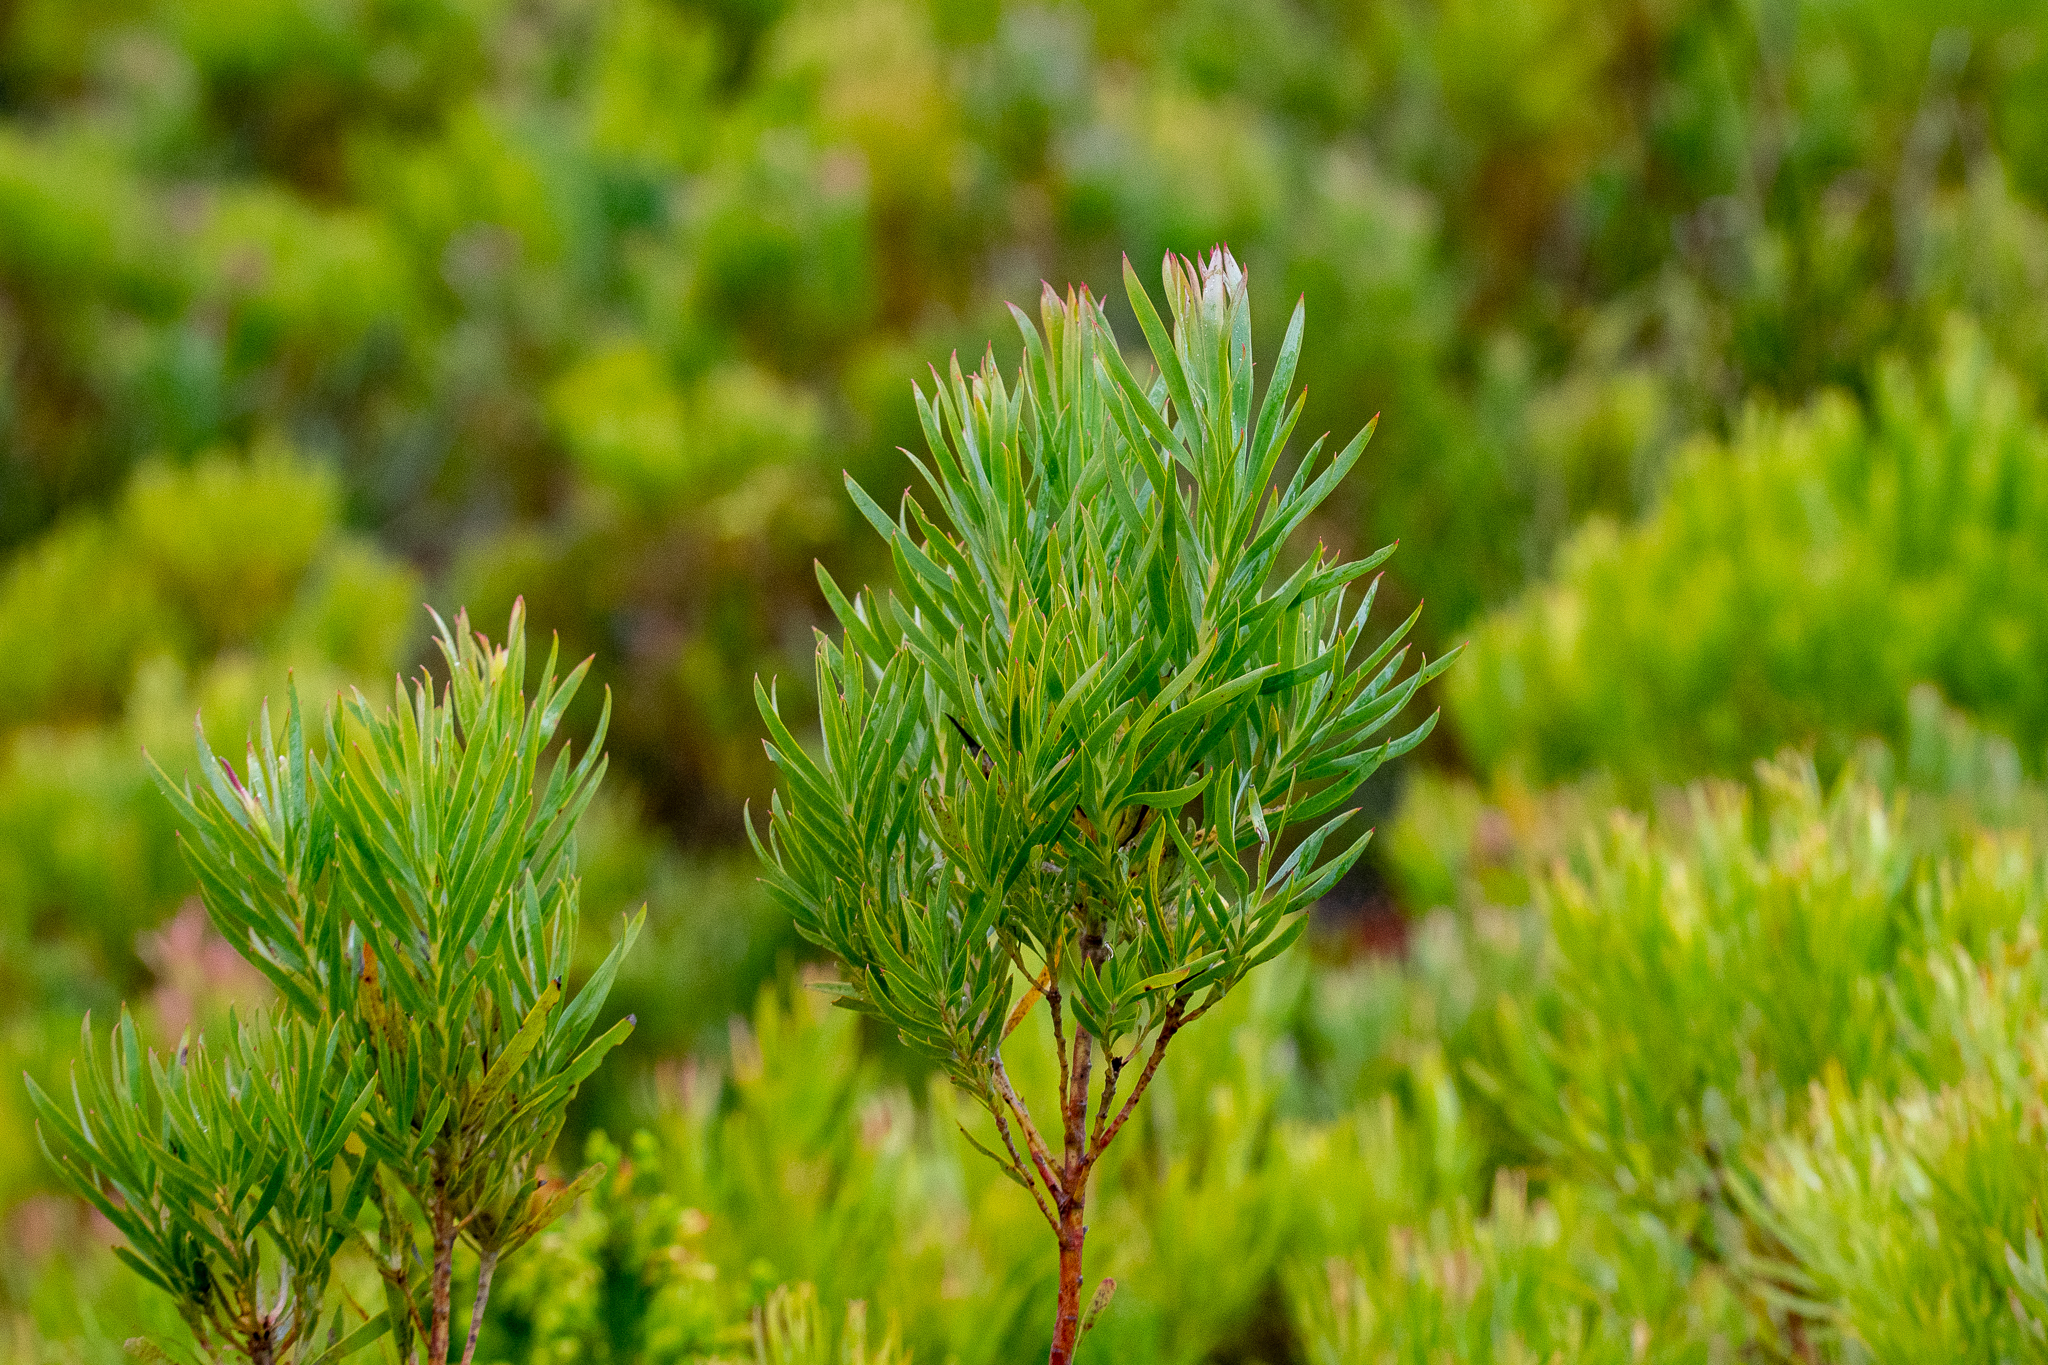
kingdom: Plantae
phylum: Tracheophyta
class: Magnoliopsida
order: Proteales
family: Proteaceae
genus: Leucadendron
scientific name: Leucadendron xanthoconus
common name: Sickle-leaf conebush
